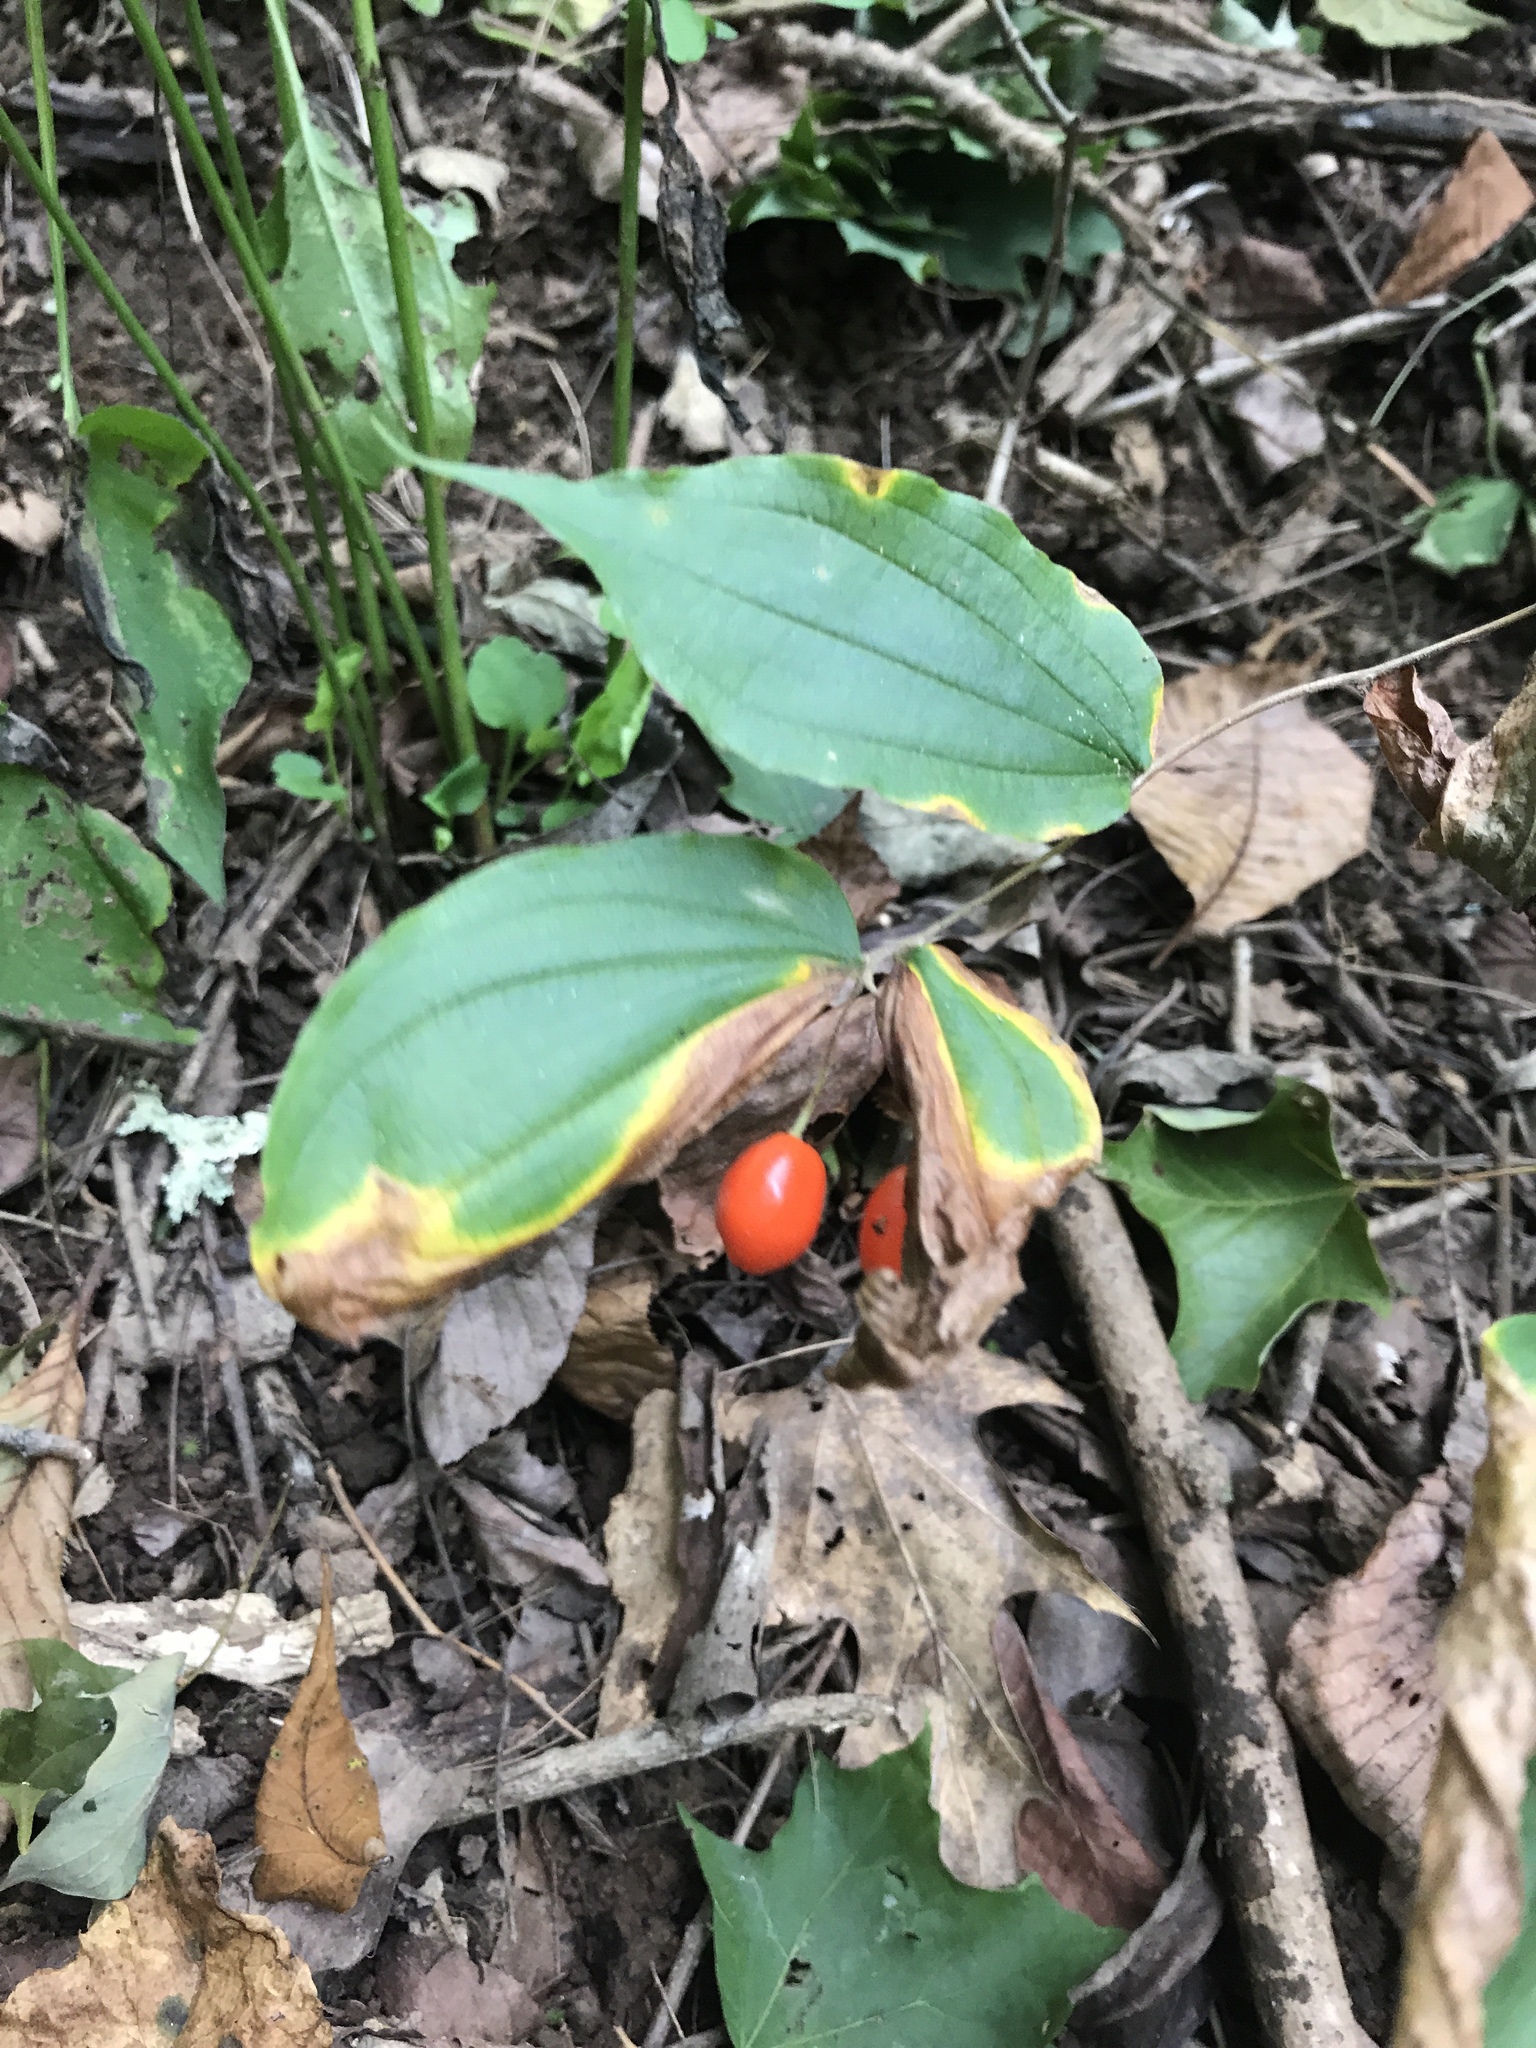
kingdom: Plantae
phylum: Tracheophyta
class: Liliopsida
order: Liliales
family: Liliaceae
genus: Prosartes
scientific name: Prosartes lanuginosa
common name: Hairy mandarin
